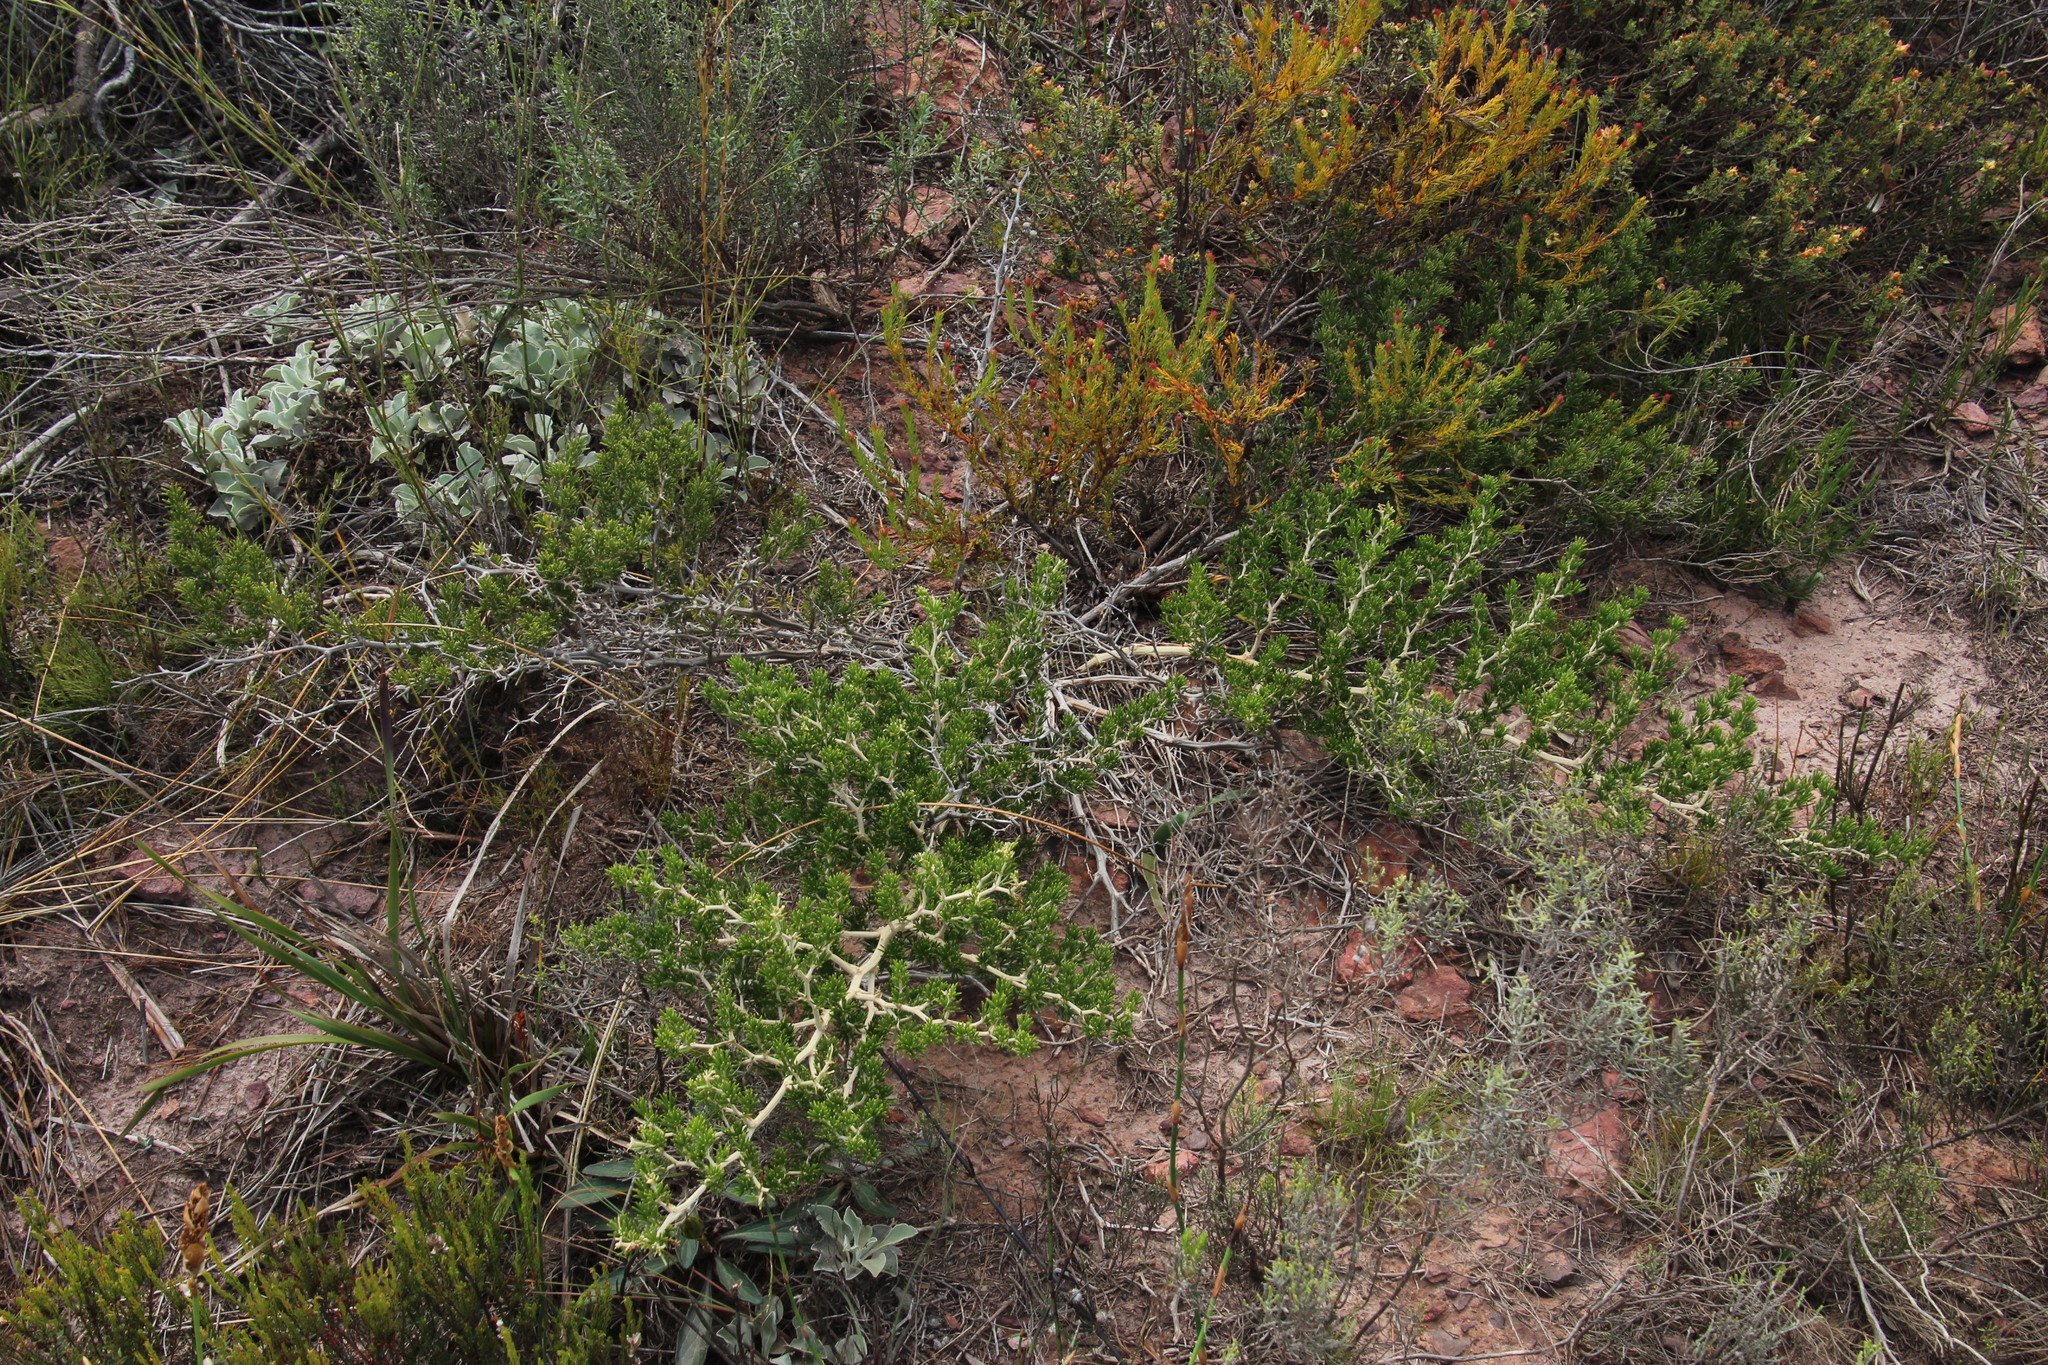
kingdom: Plantae
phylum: Tracheophyta
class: Liliopsida
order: Asparagales
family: Asparagaceae
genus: Asparagus
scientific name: Asparagus lignosus
